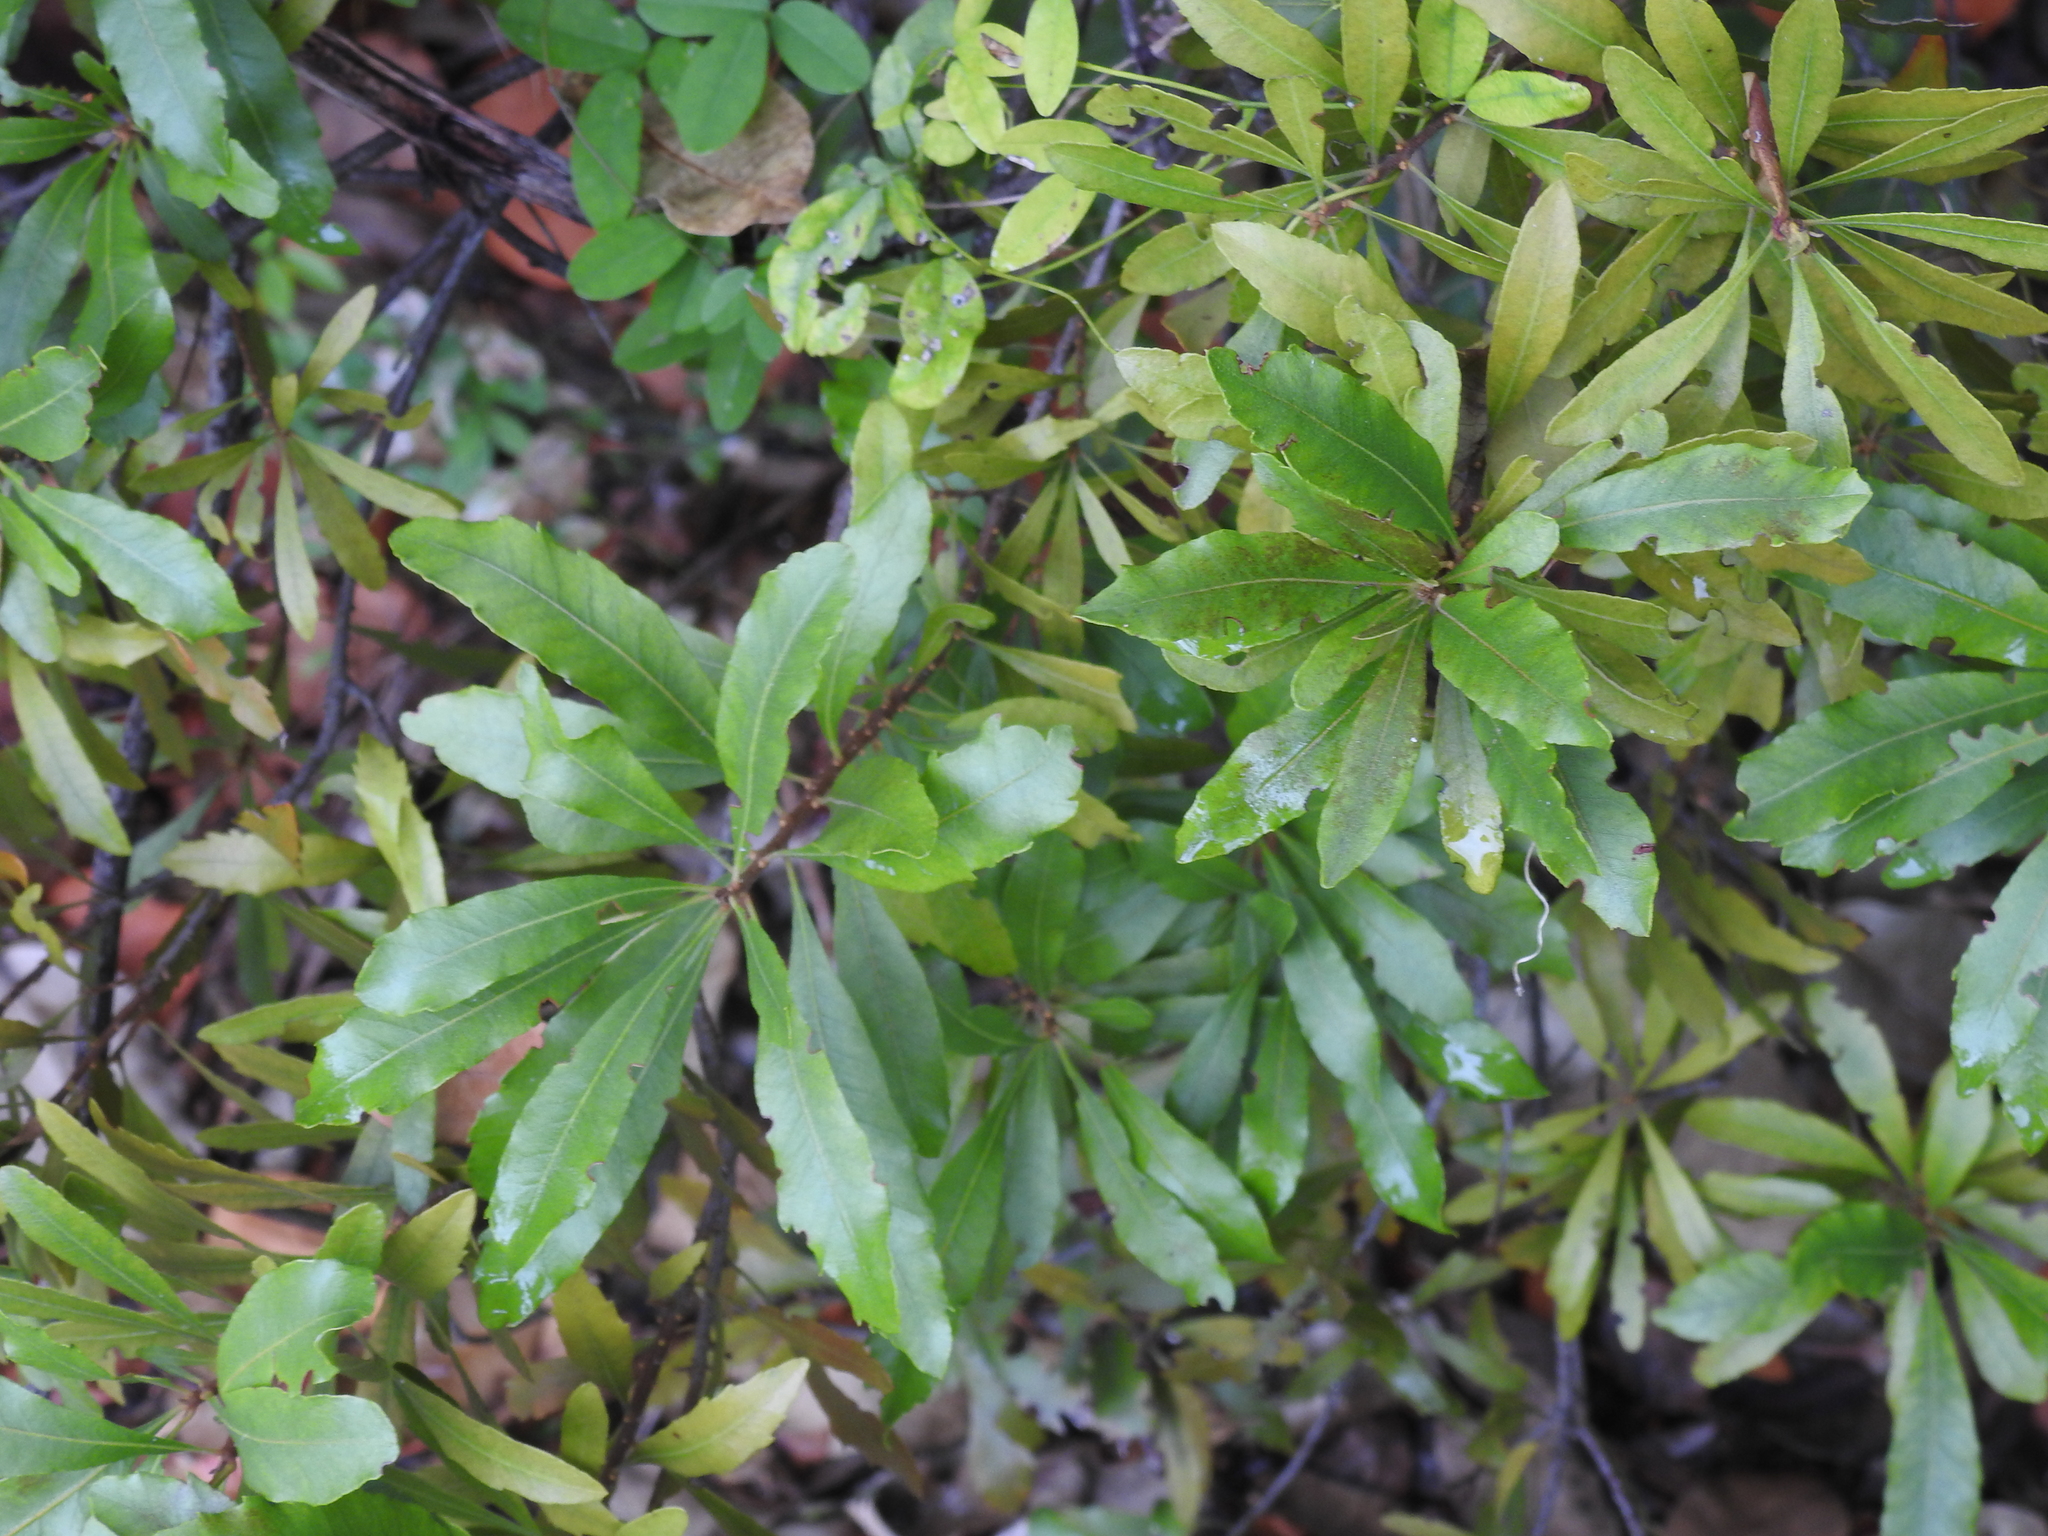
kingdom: Plantae
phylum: Tracheophyta
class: Magnoliopsida
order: Fagales
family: Myricaceae
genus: Morella
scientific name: Morella cerifera
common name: Wax myrtle
